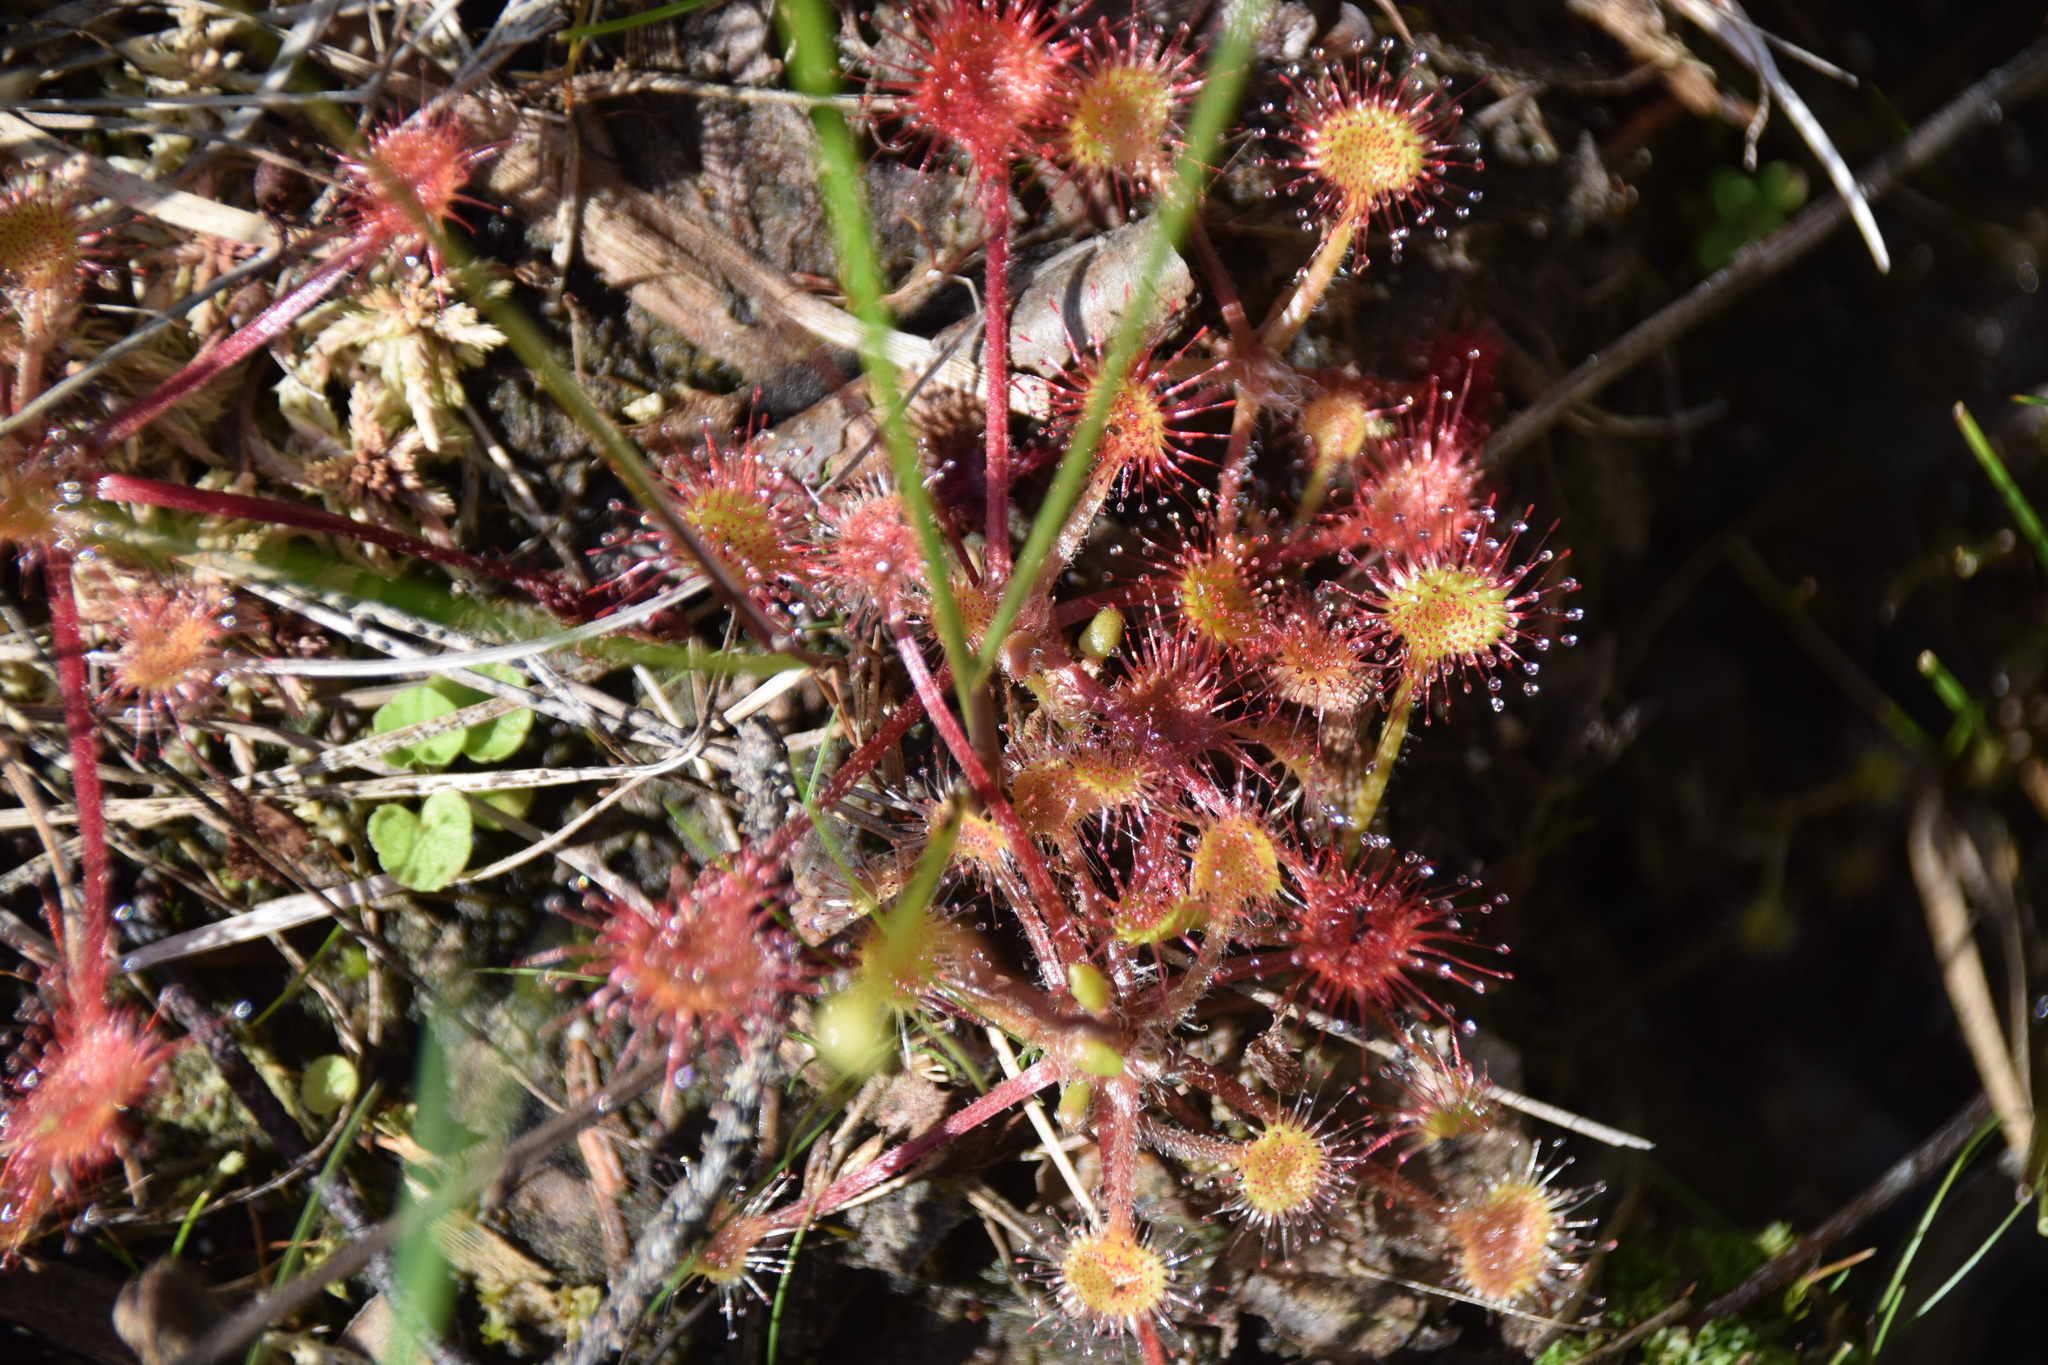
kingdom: Plantae
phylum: Tracheophyta
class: Magnoliopsida
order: Caryophyllales
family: Droseraceae
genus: Drosera
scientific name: Drosera rotundifolia
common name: Round-leaved sundew
